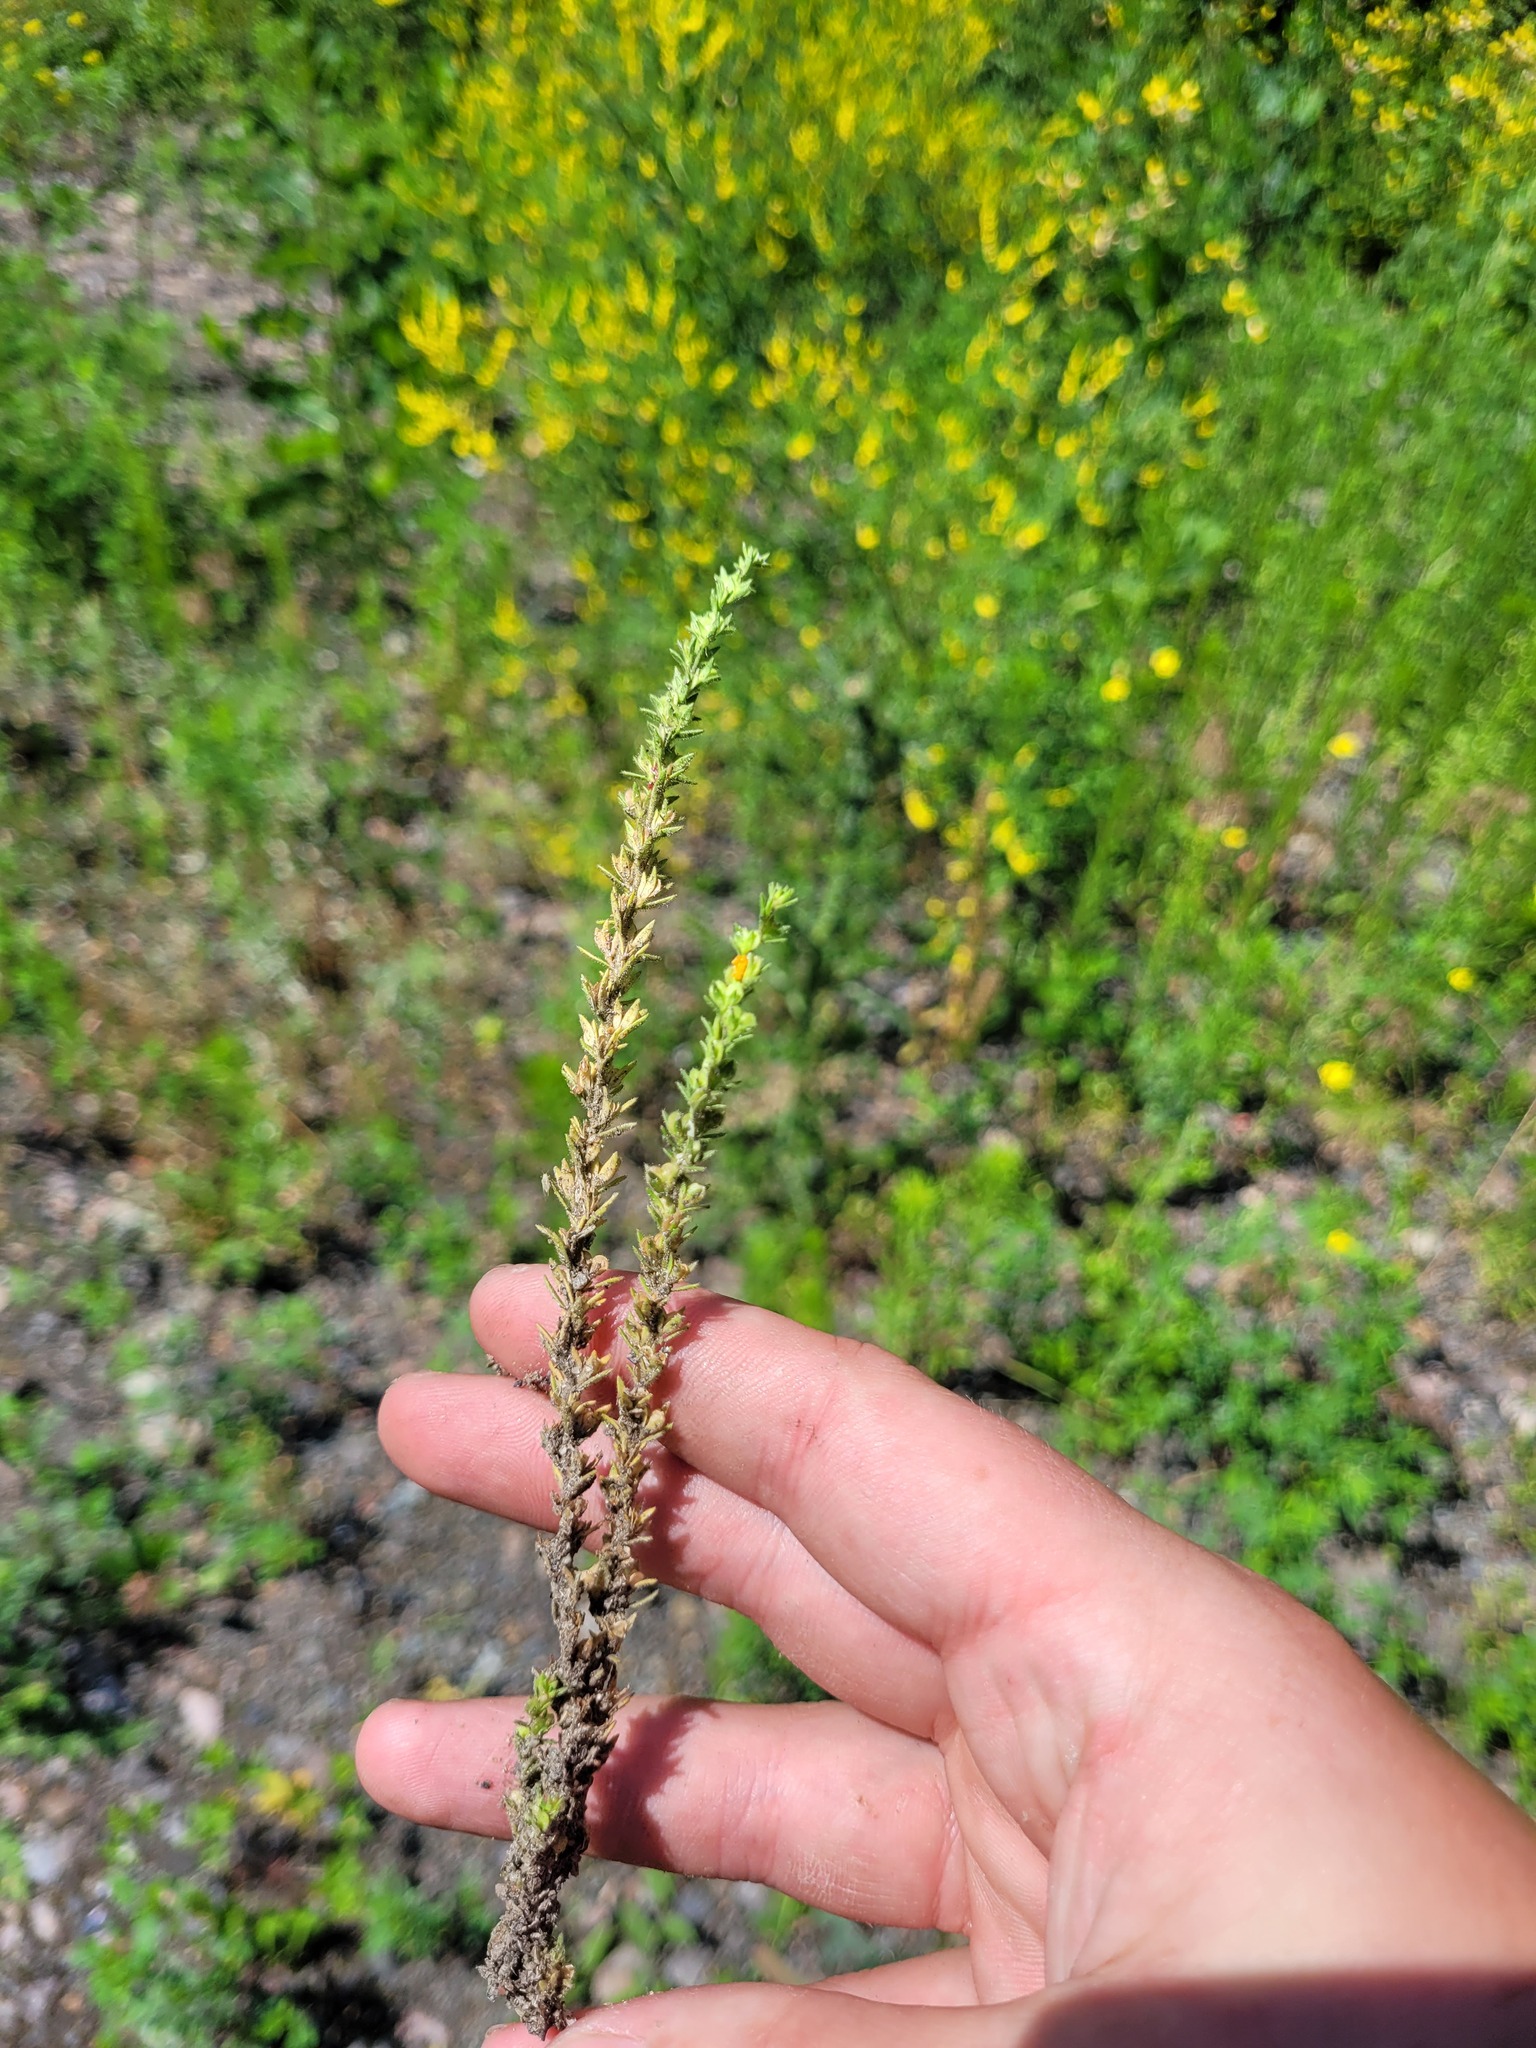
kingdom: Plantae
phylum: Tracheophyta
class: Magnoliopsida
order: Lamiales
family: Plantaginaceae
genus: Veronica
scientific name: Veronica arvensis
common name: Corn speedwell
